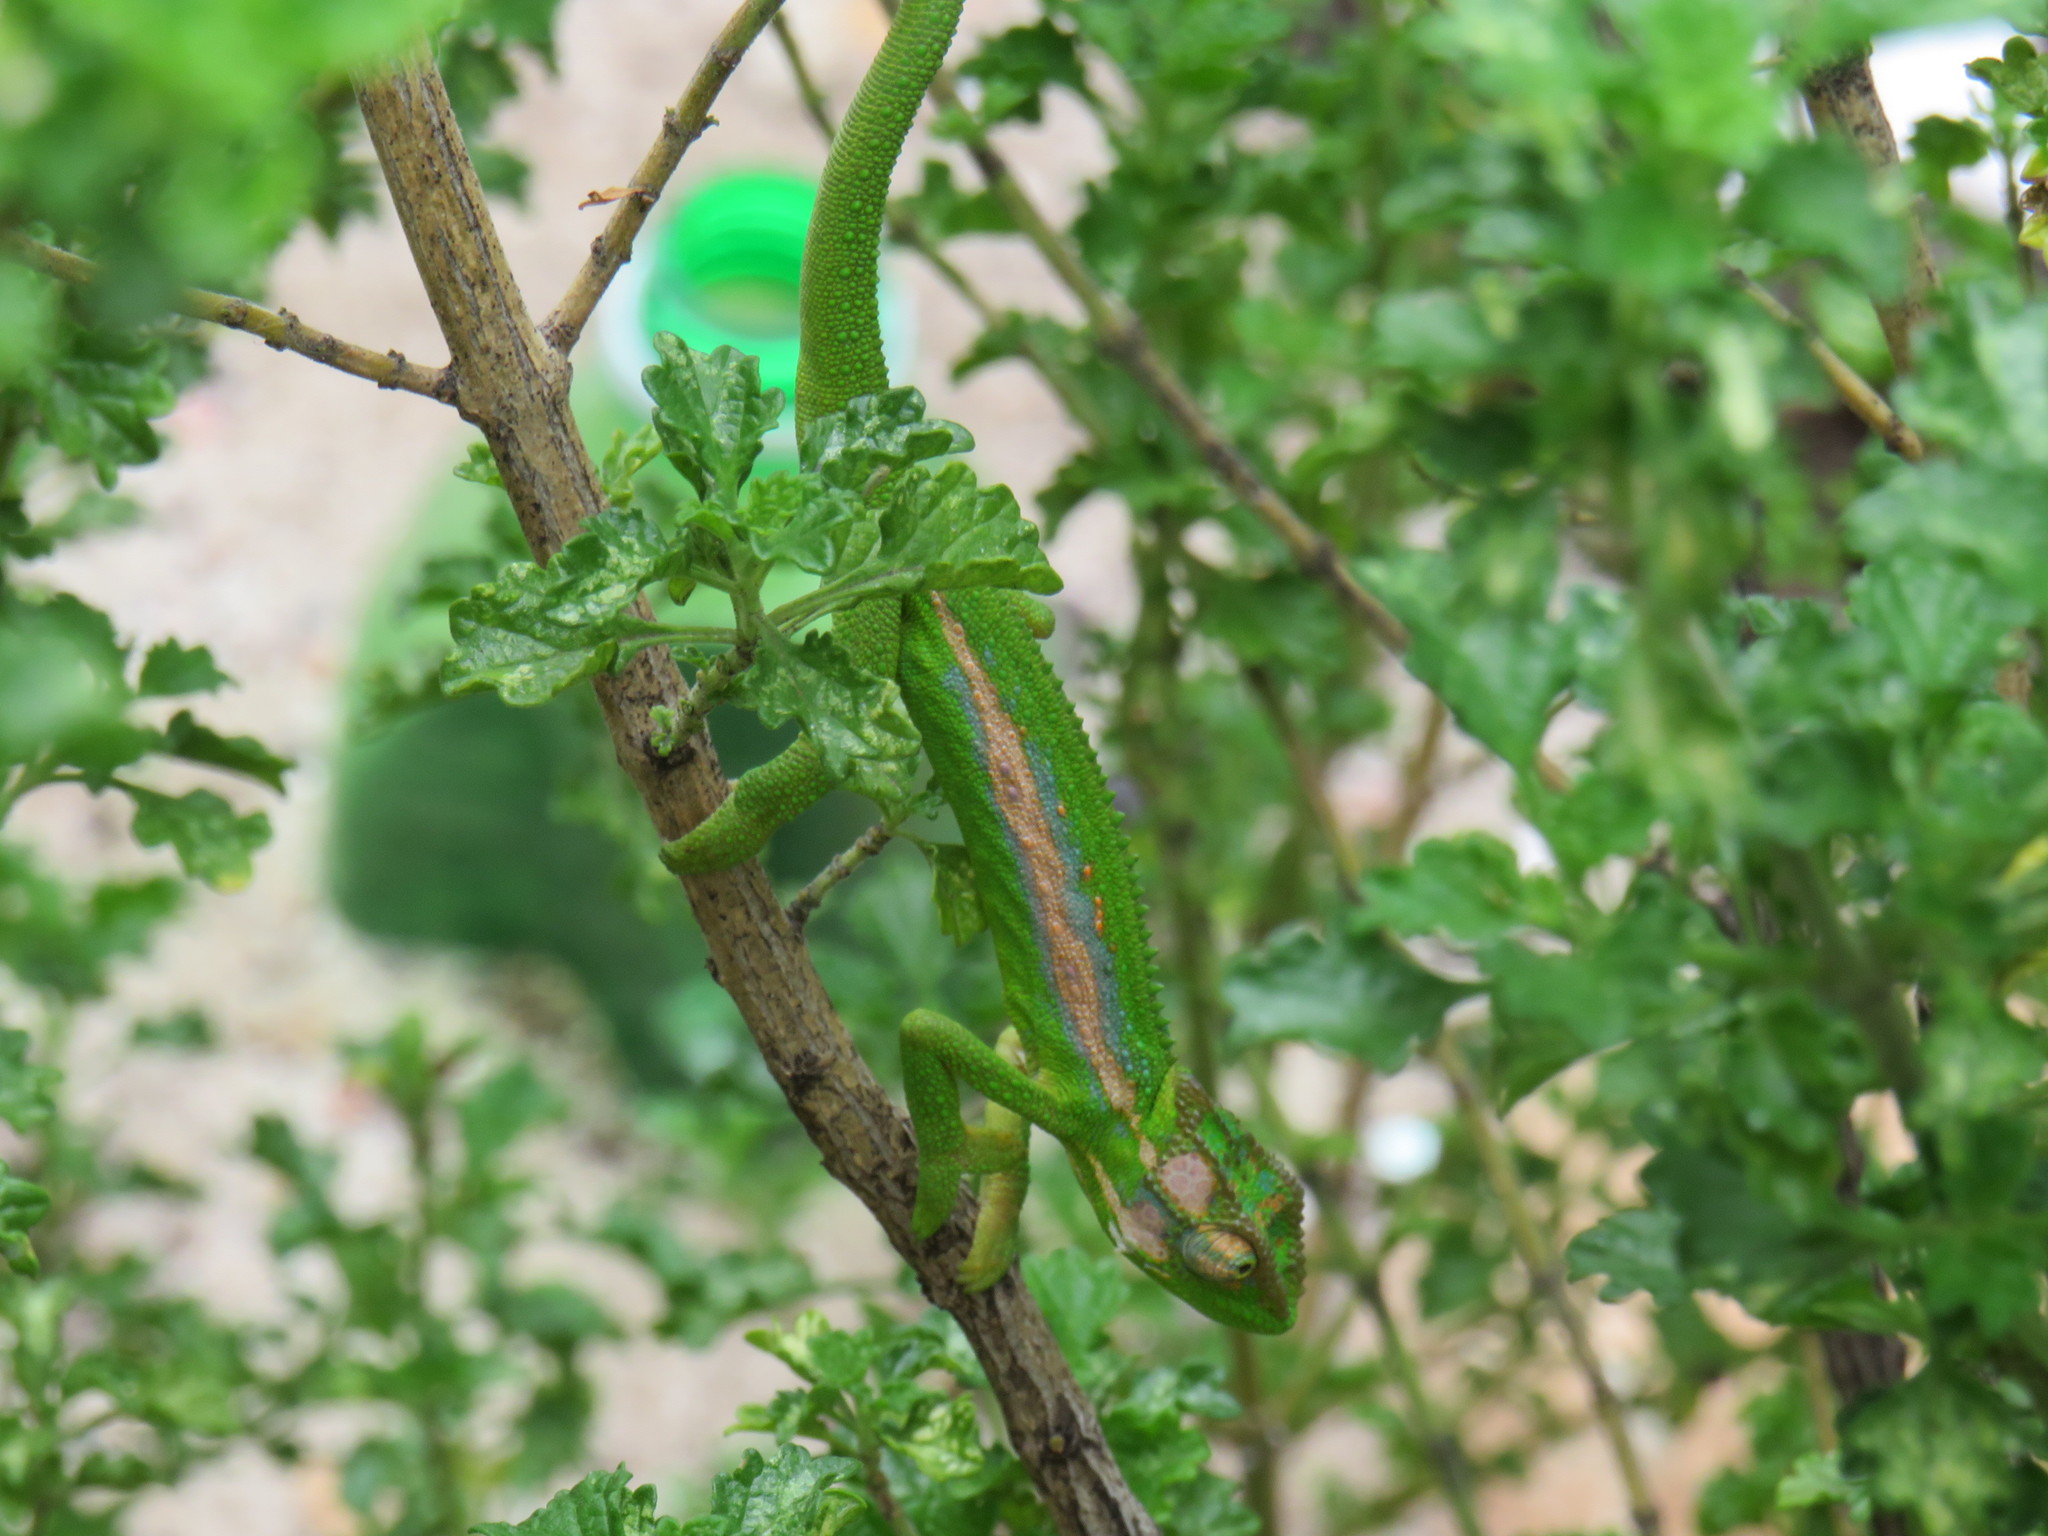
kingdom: Animalia
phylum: Chordata
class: Squamata
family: Chamaeleonidae
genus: Bradypodion
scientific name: Bradypodion pumilum
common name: Cape dwarf chameleon
